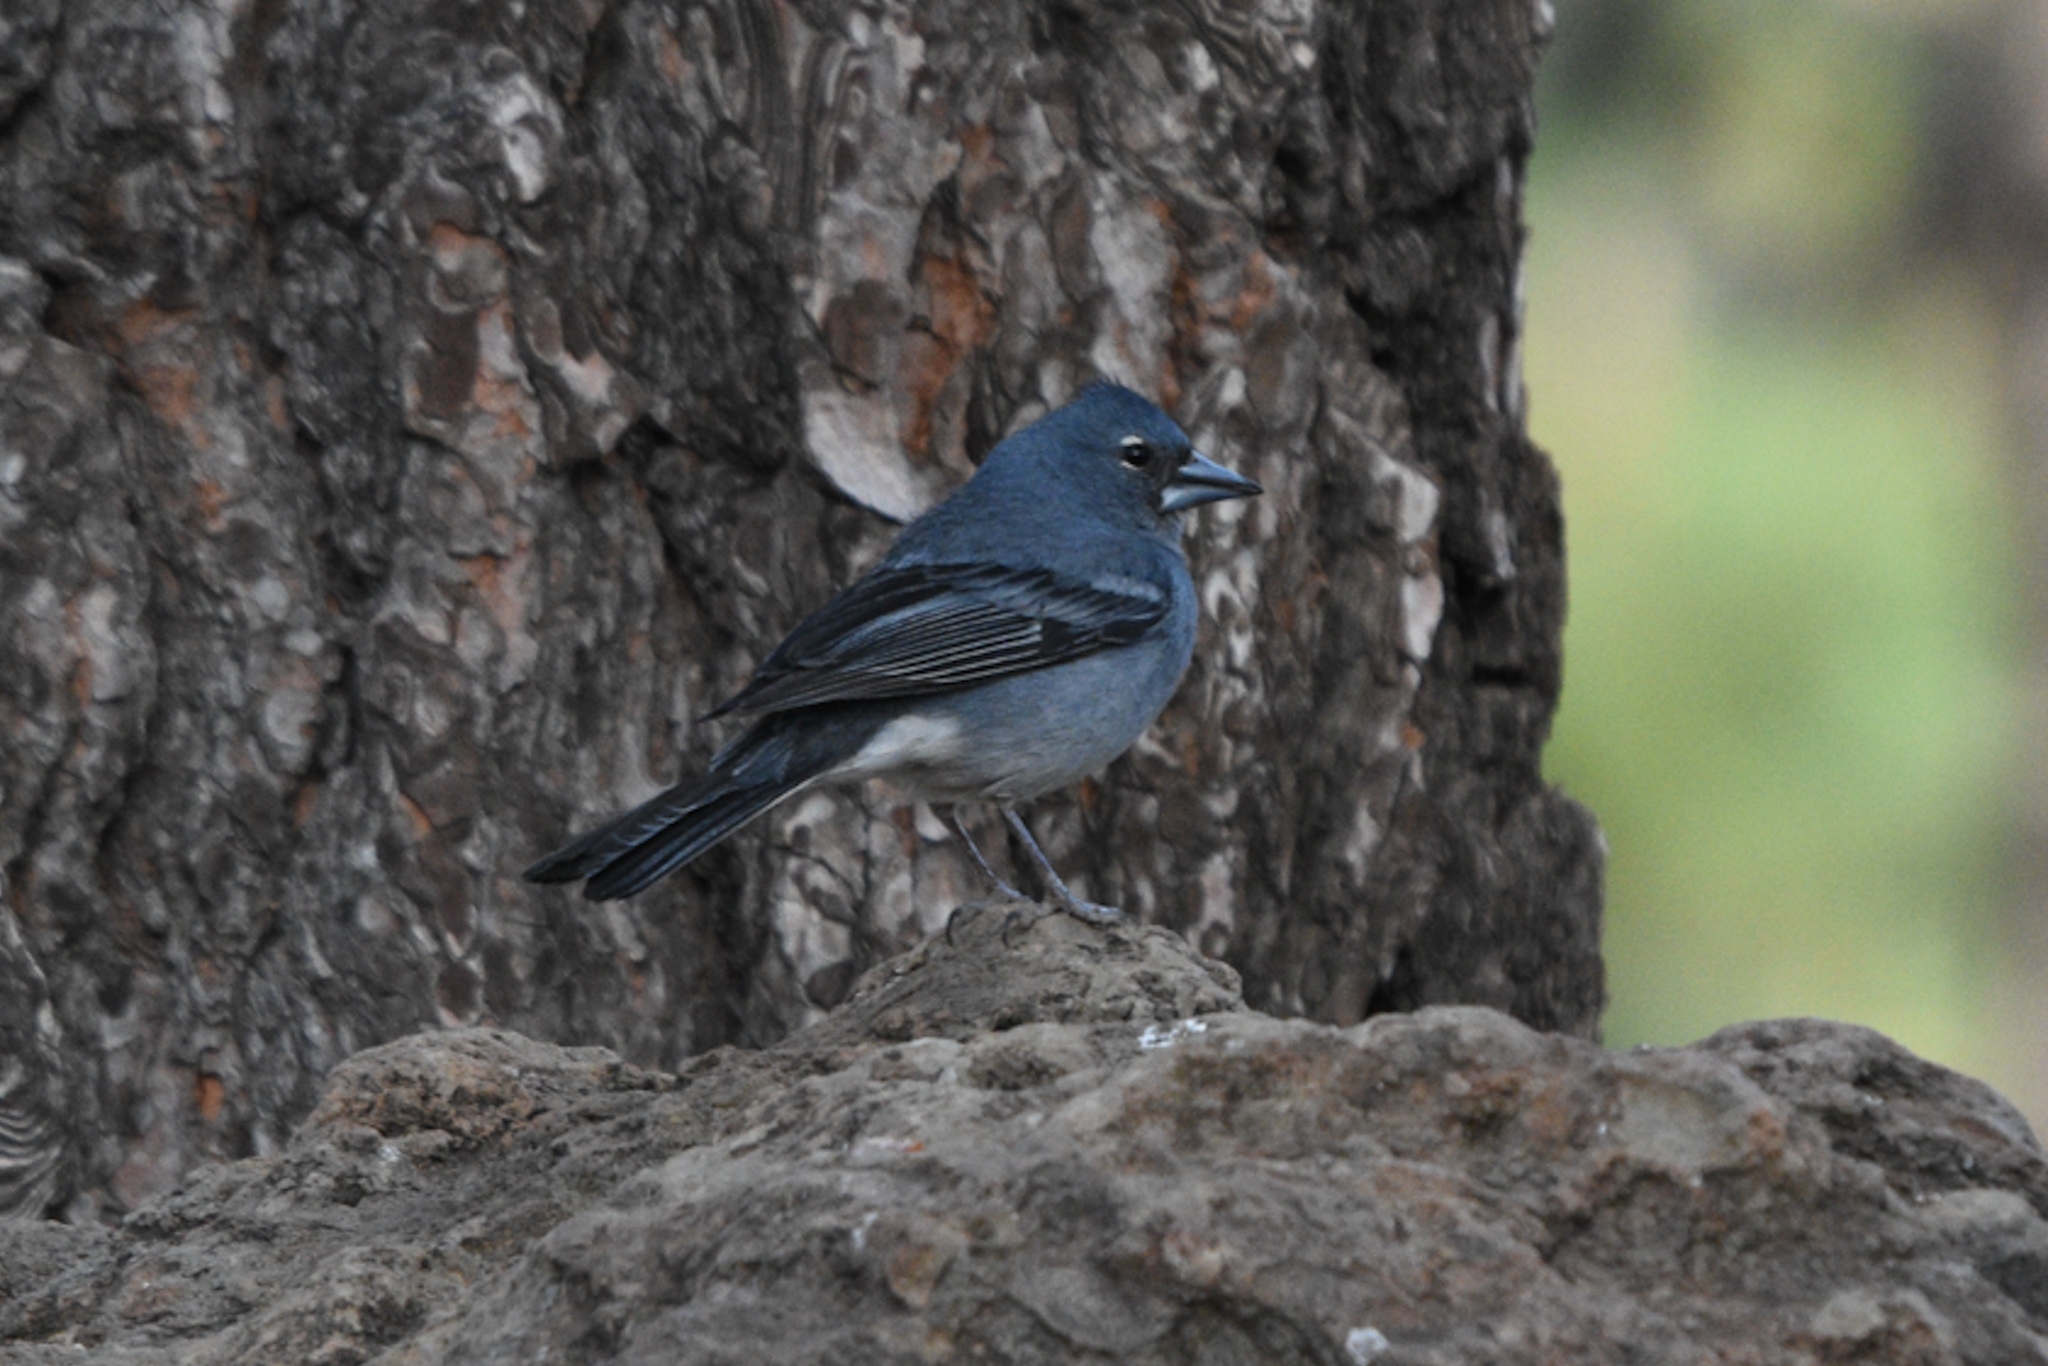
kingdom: Animalia
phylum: Chordata
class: Aves
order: Passeriformes
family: Fringillidae
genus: Fringilla
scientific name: Fringilla teydea
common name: Blue chaffinch
